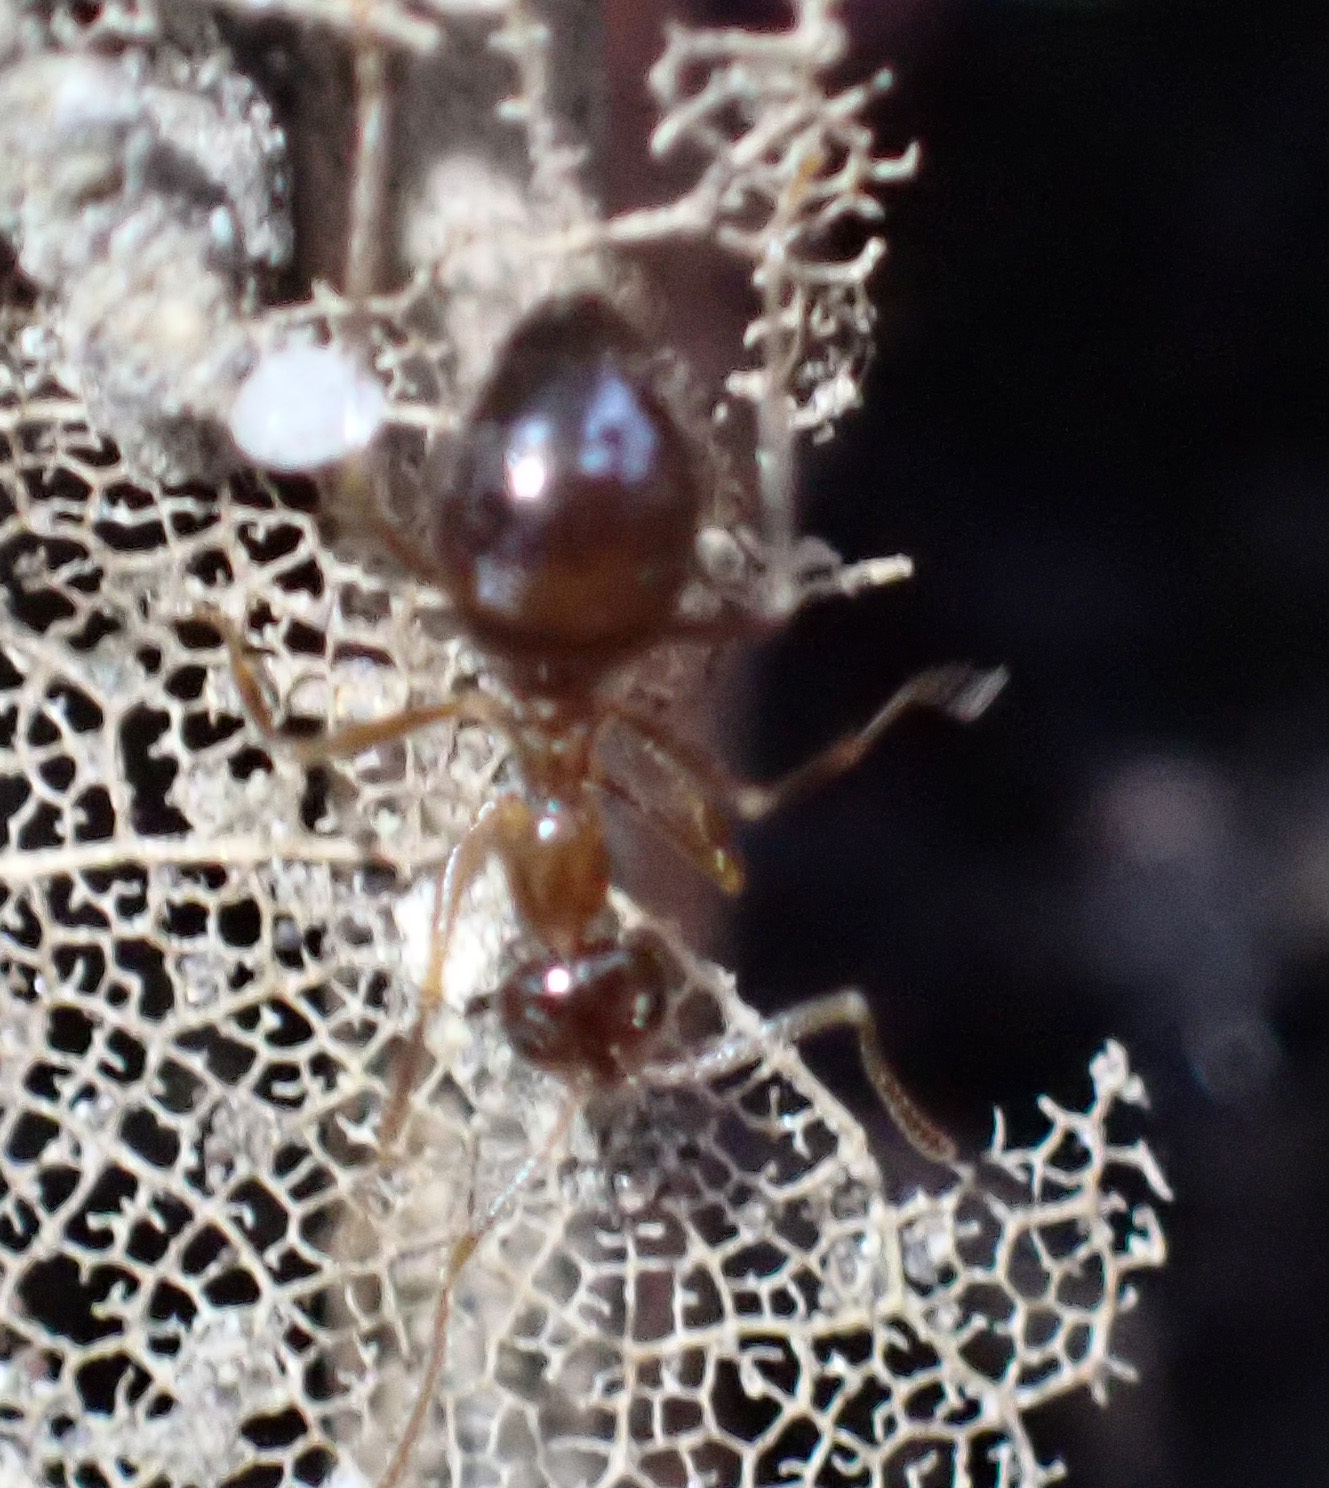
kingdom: Animalia
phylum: Arthropoda
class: Insecta
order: Hymenoptera
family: Formicidae
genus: Prenolepis
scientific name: Prenolepis nitens
